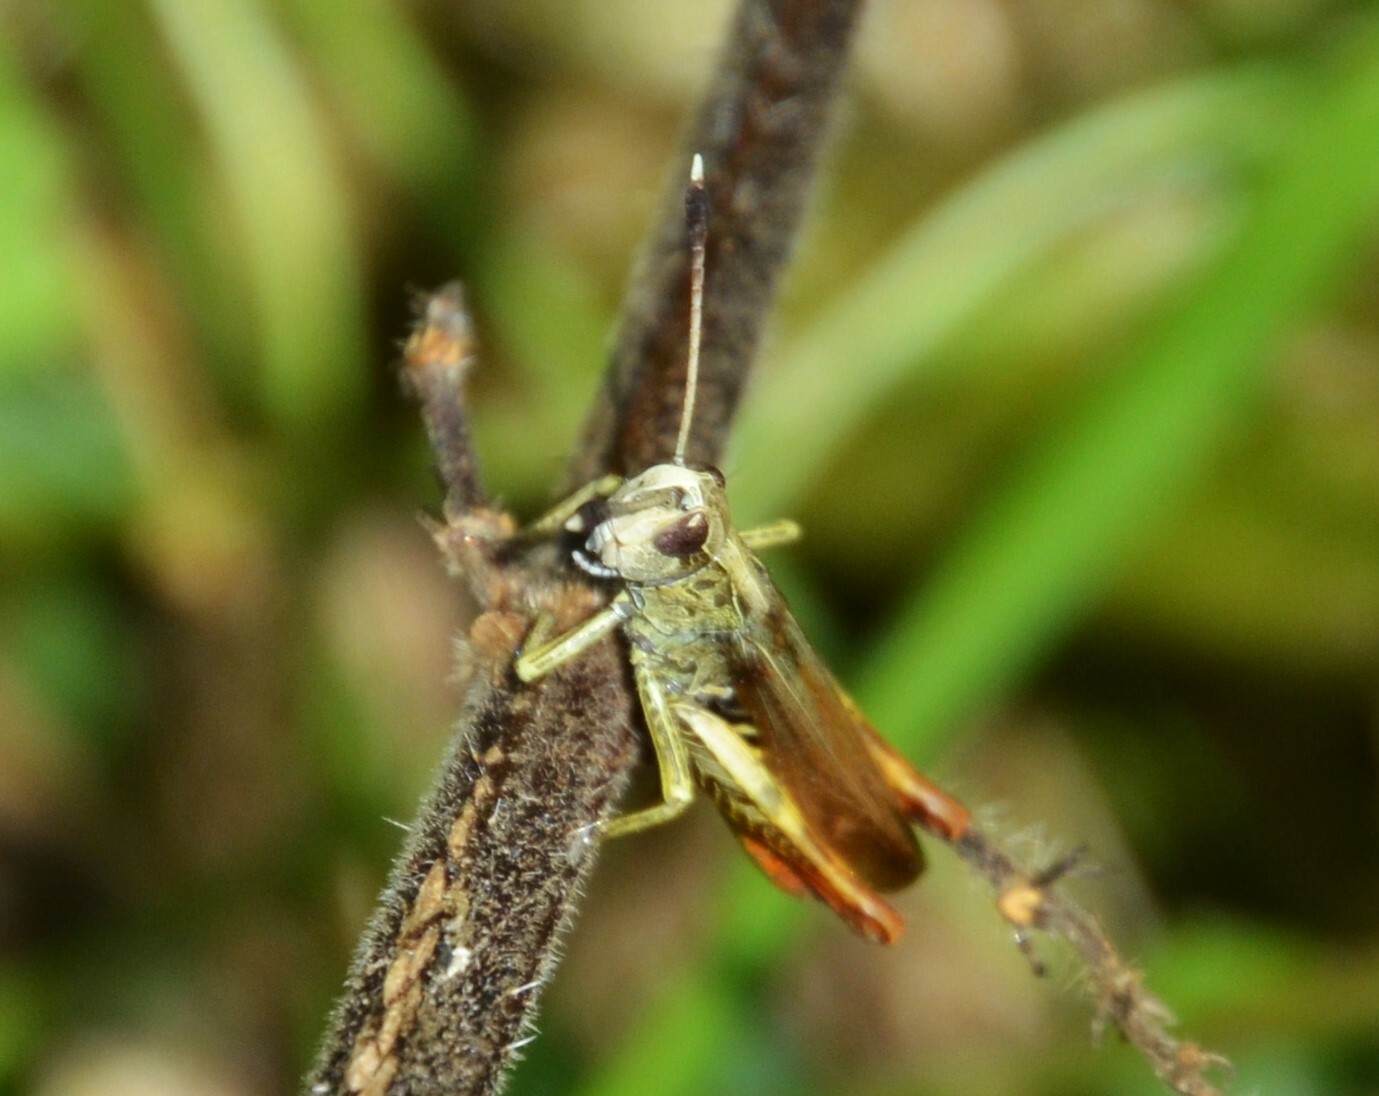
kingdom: Animalia
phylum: Arthropoda
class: Insecta
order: Orthoptera
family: Acrididae
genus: Gomphocerippus
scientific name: Gomphocerippus rufus
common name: Rufous grasshopper
